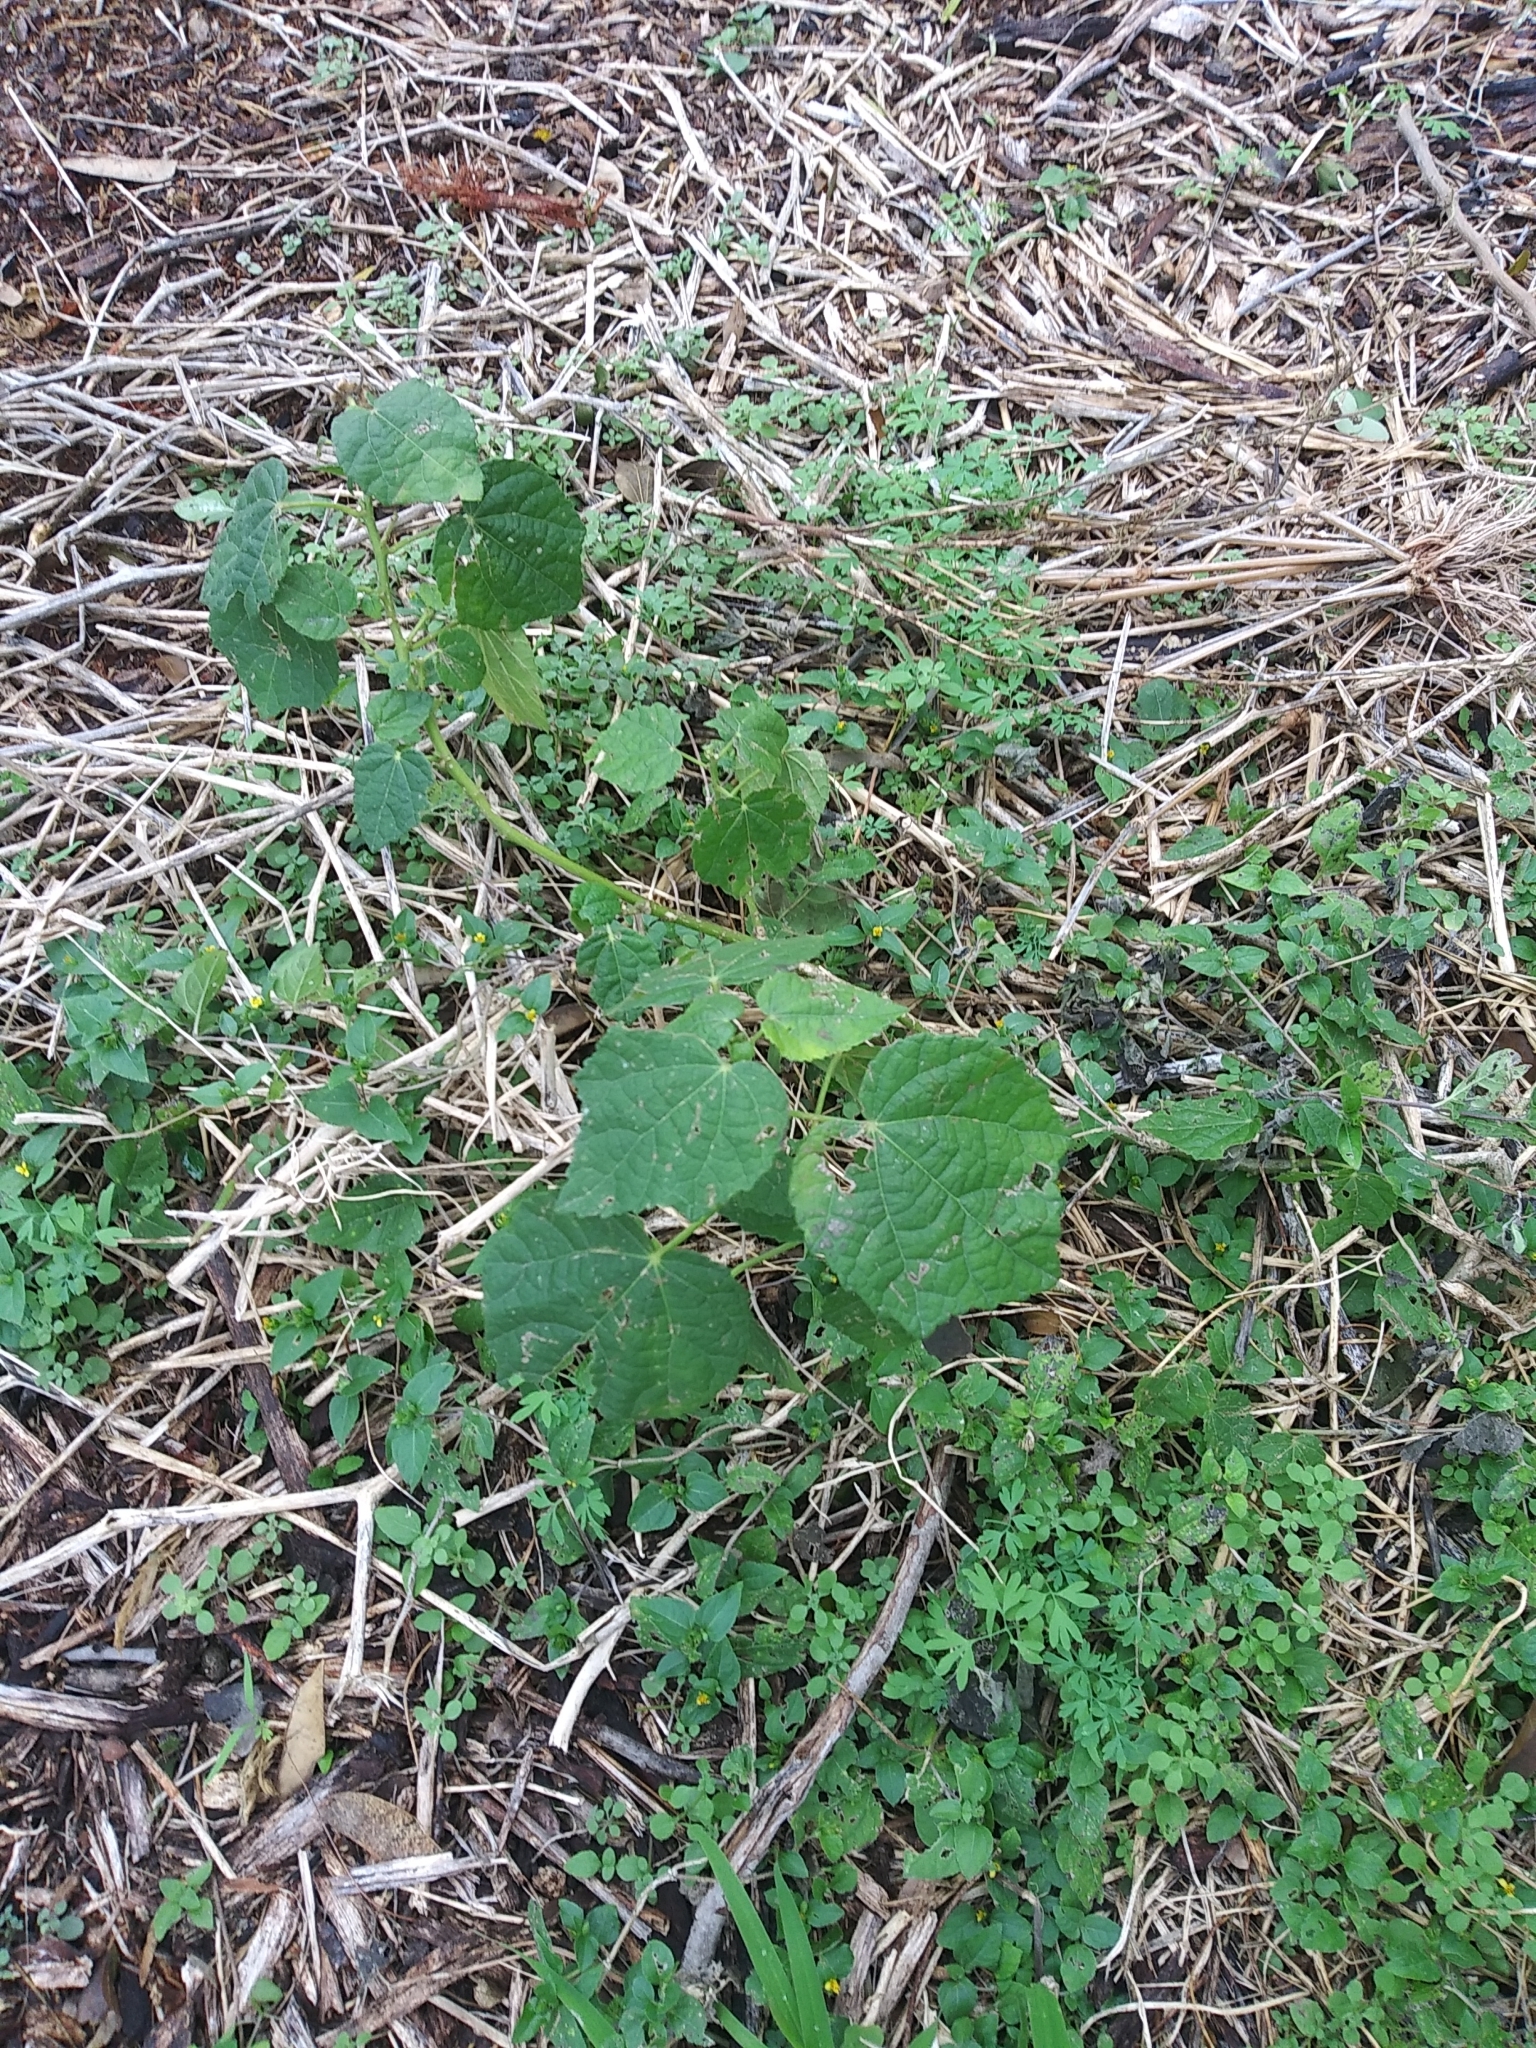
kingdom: Plantae
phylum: Tracheophyta
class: Magnoliopsida
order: Malvales
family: Malvaceae
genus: Malvaviscus
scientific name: Malvaviscus arboreus
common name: Wax mallow
